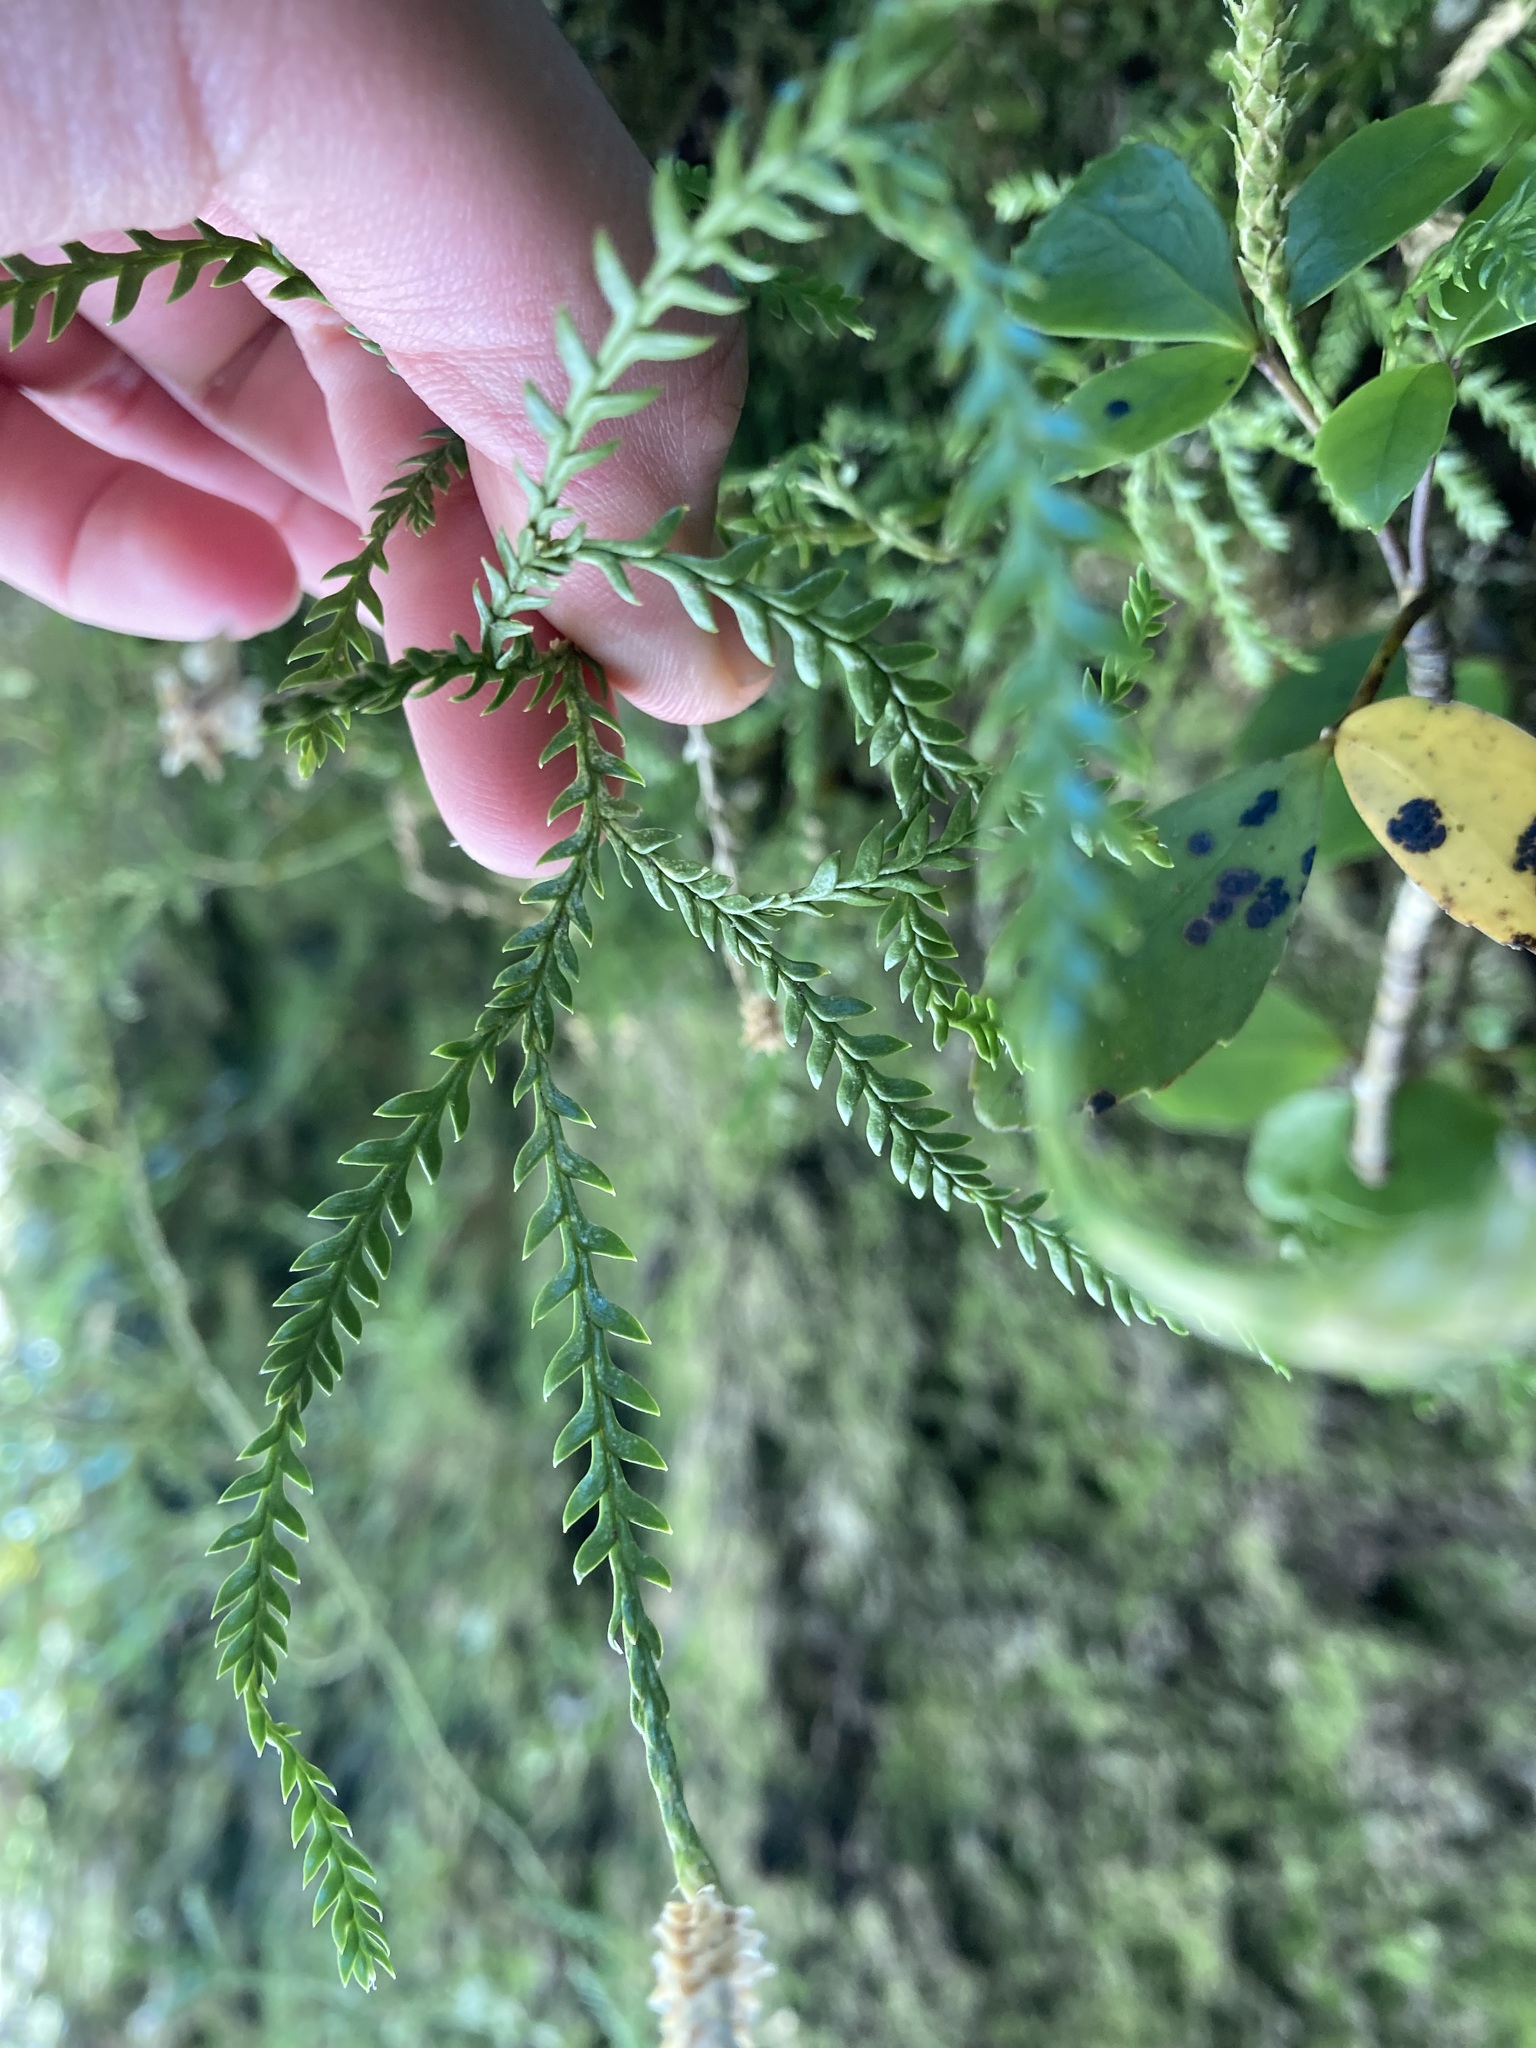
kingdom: Plantae
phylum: Tracheophyta
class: Lycopodiopsida
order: Lycopodiales
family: Lycopodiaceae
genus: Diphasium
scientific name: Diphasium scariosum
